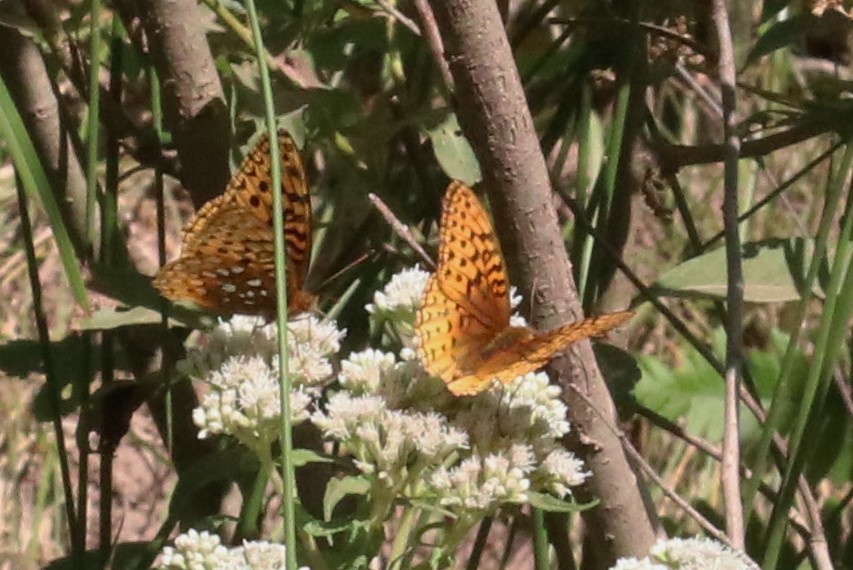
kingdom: Animalia
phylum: Arthropoda
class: Insecta
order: Lepidoptera
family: Nymphalidae
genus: Speyeria
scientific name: Speyeria cybele
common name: Great spangled fritillary
